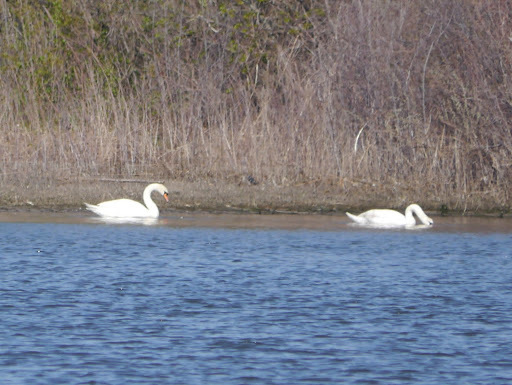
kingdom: Animalia
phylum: Chordata
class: Aves
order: Anseriformes
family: Anatidae
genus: Cygnus
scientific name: Cygnus olor
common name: Mute swan
